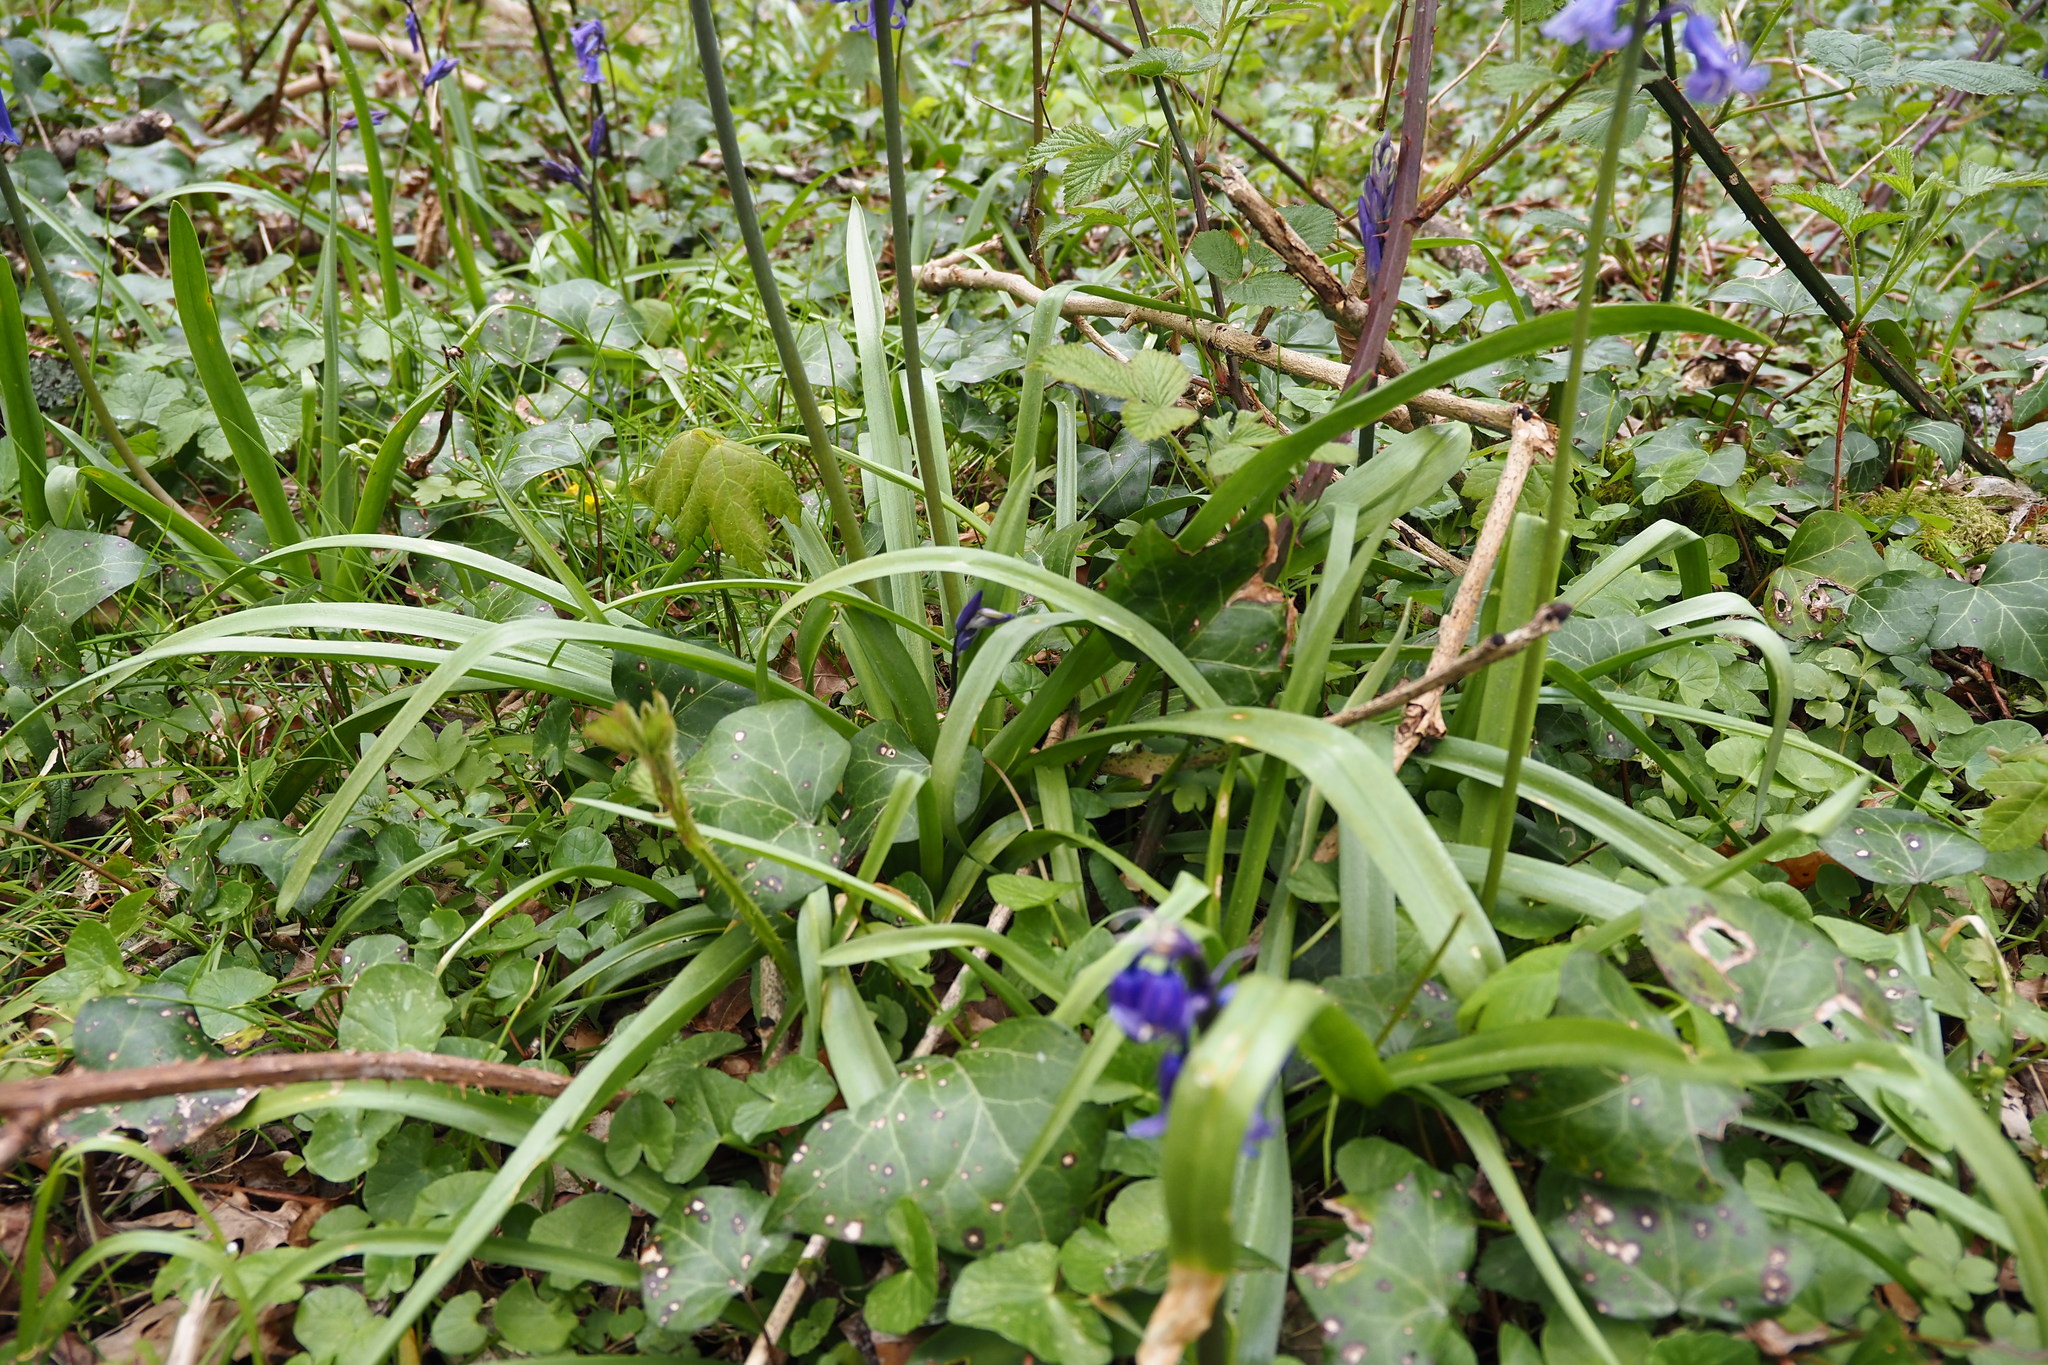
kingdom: Plantae
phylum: Tracheophyta
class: Liliopsida
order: Asparagales
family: Asparagaceae
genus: Hyacinthoides
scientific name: Hyacinthoides non-scripta
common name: Bluebell
